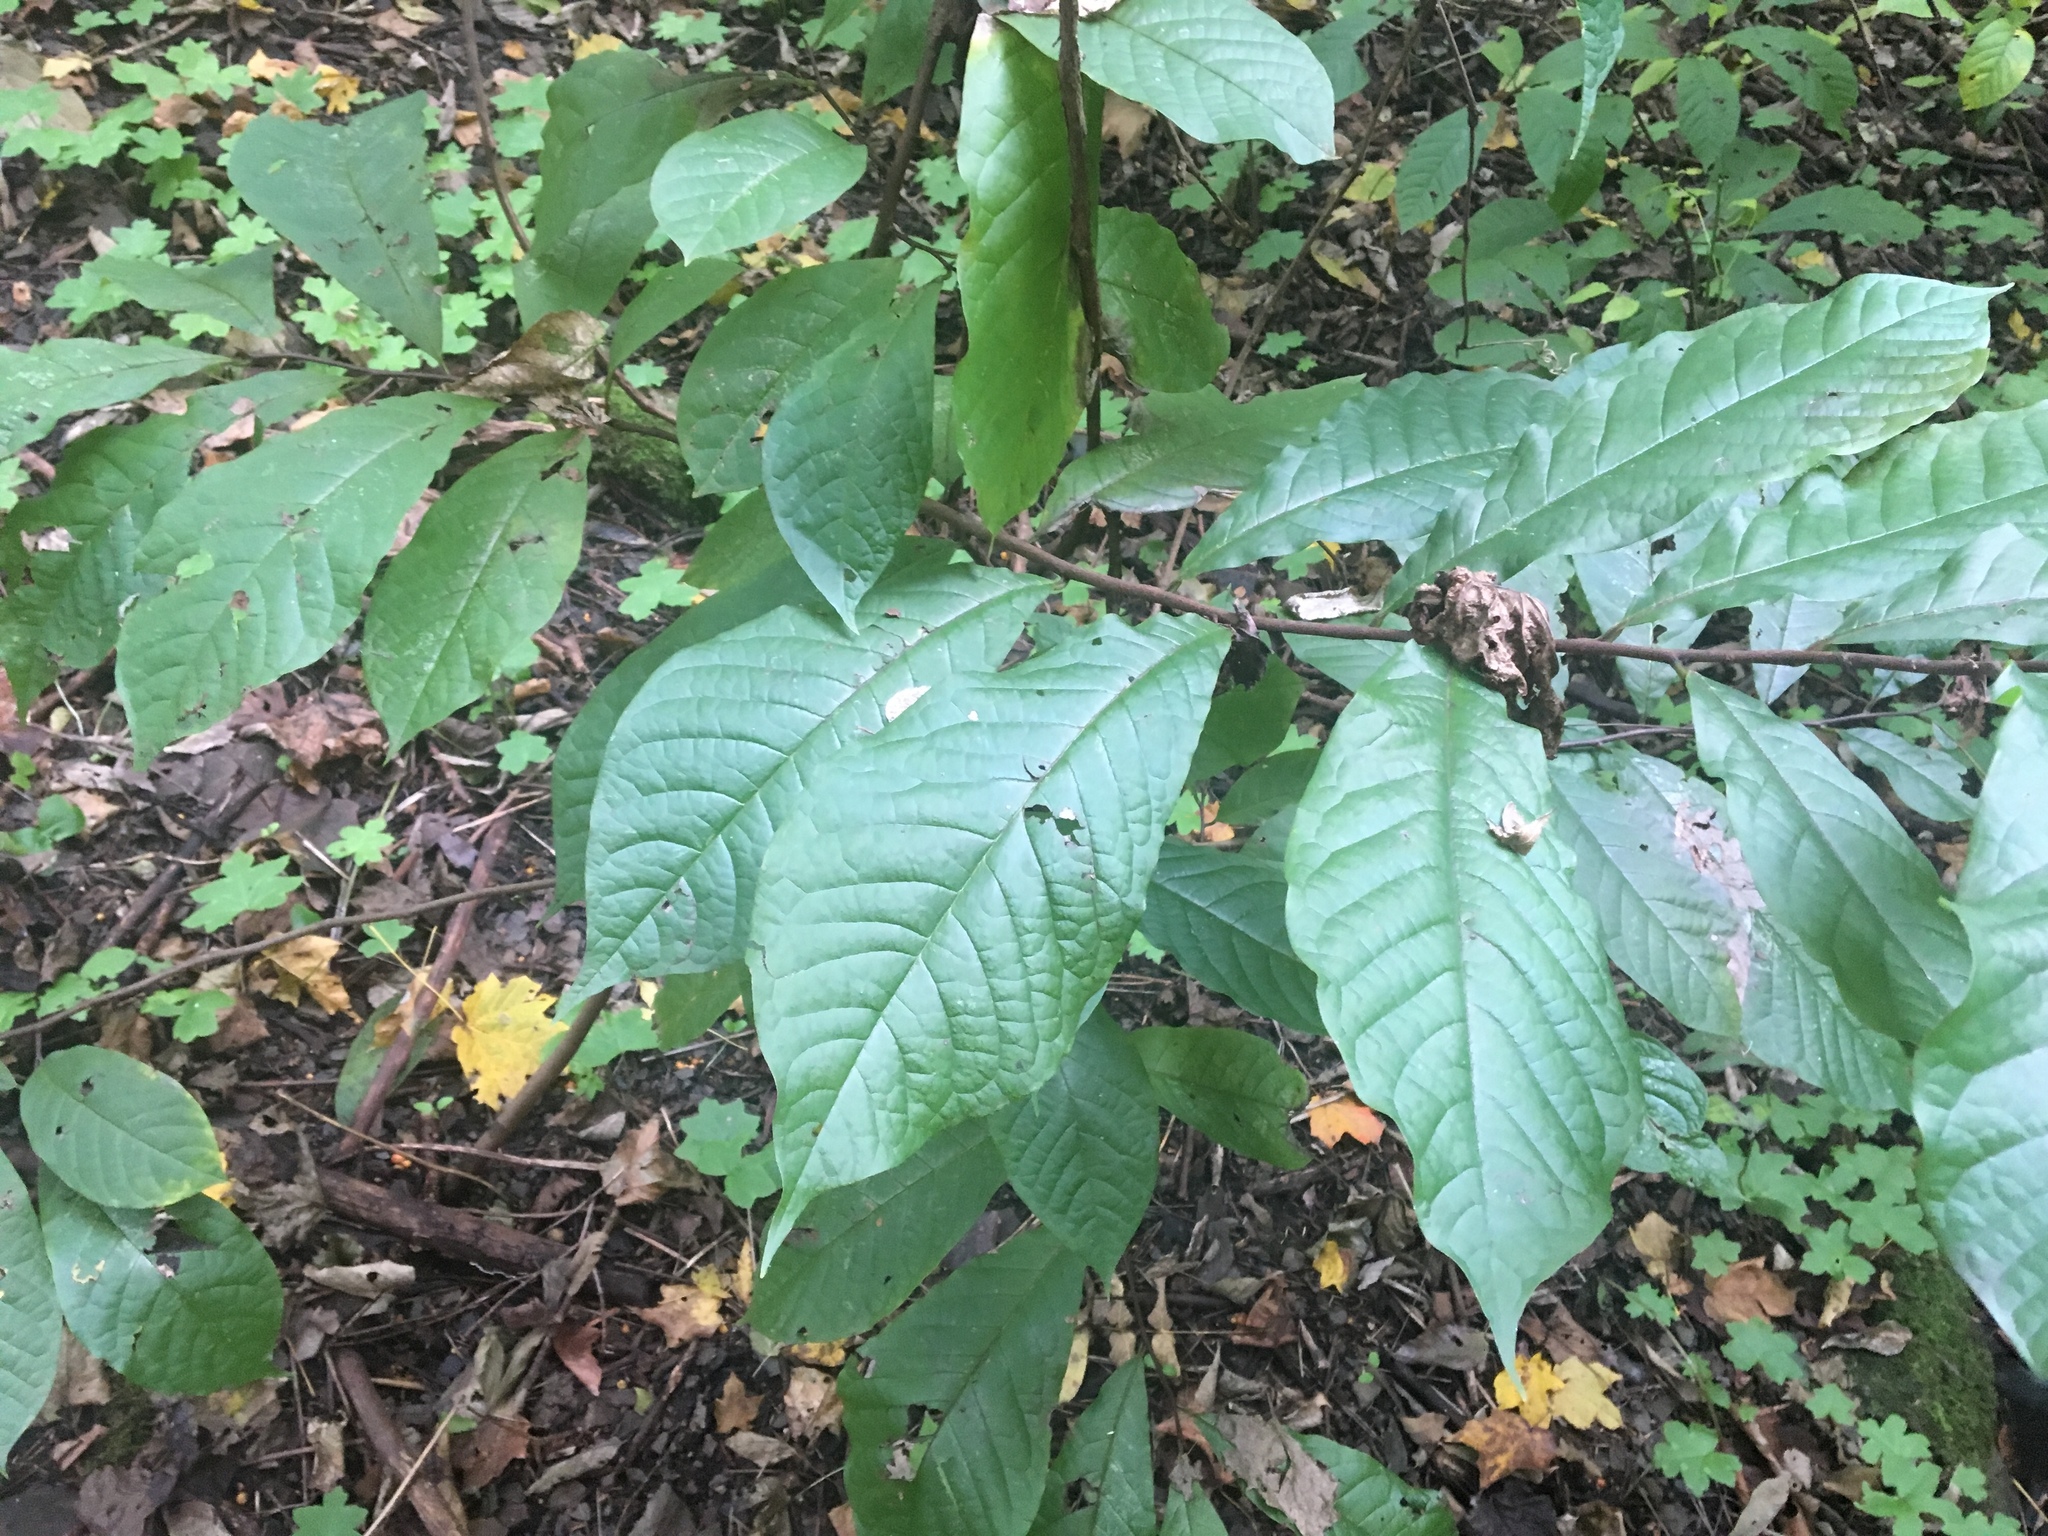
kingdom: Plantae
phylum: Tracheophyta
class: Magnoliopsida
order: Magnoliales
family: Annonaceae
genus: Asimina
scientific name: Asimina triloba
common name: Dog-banana
